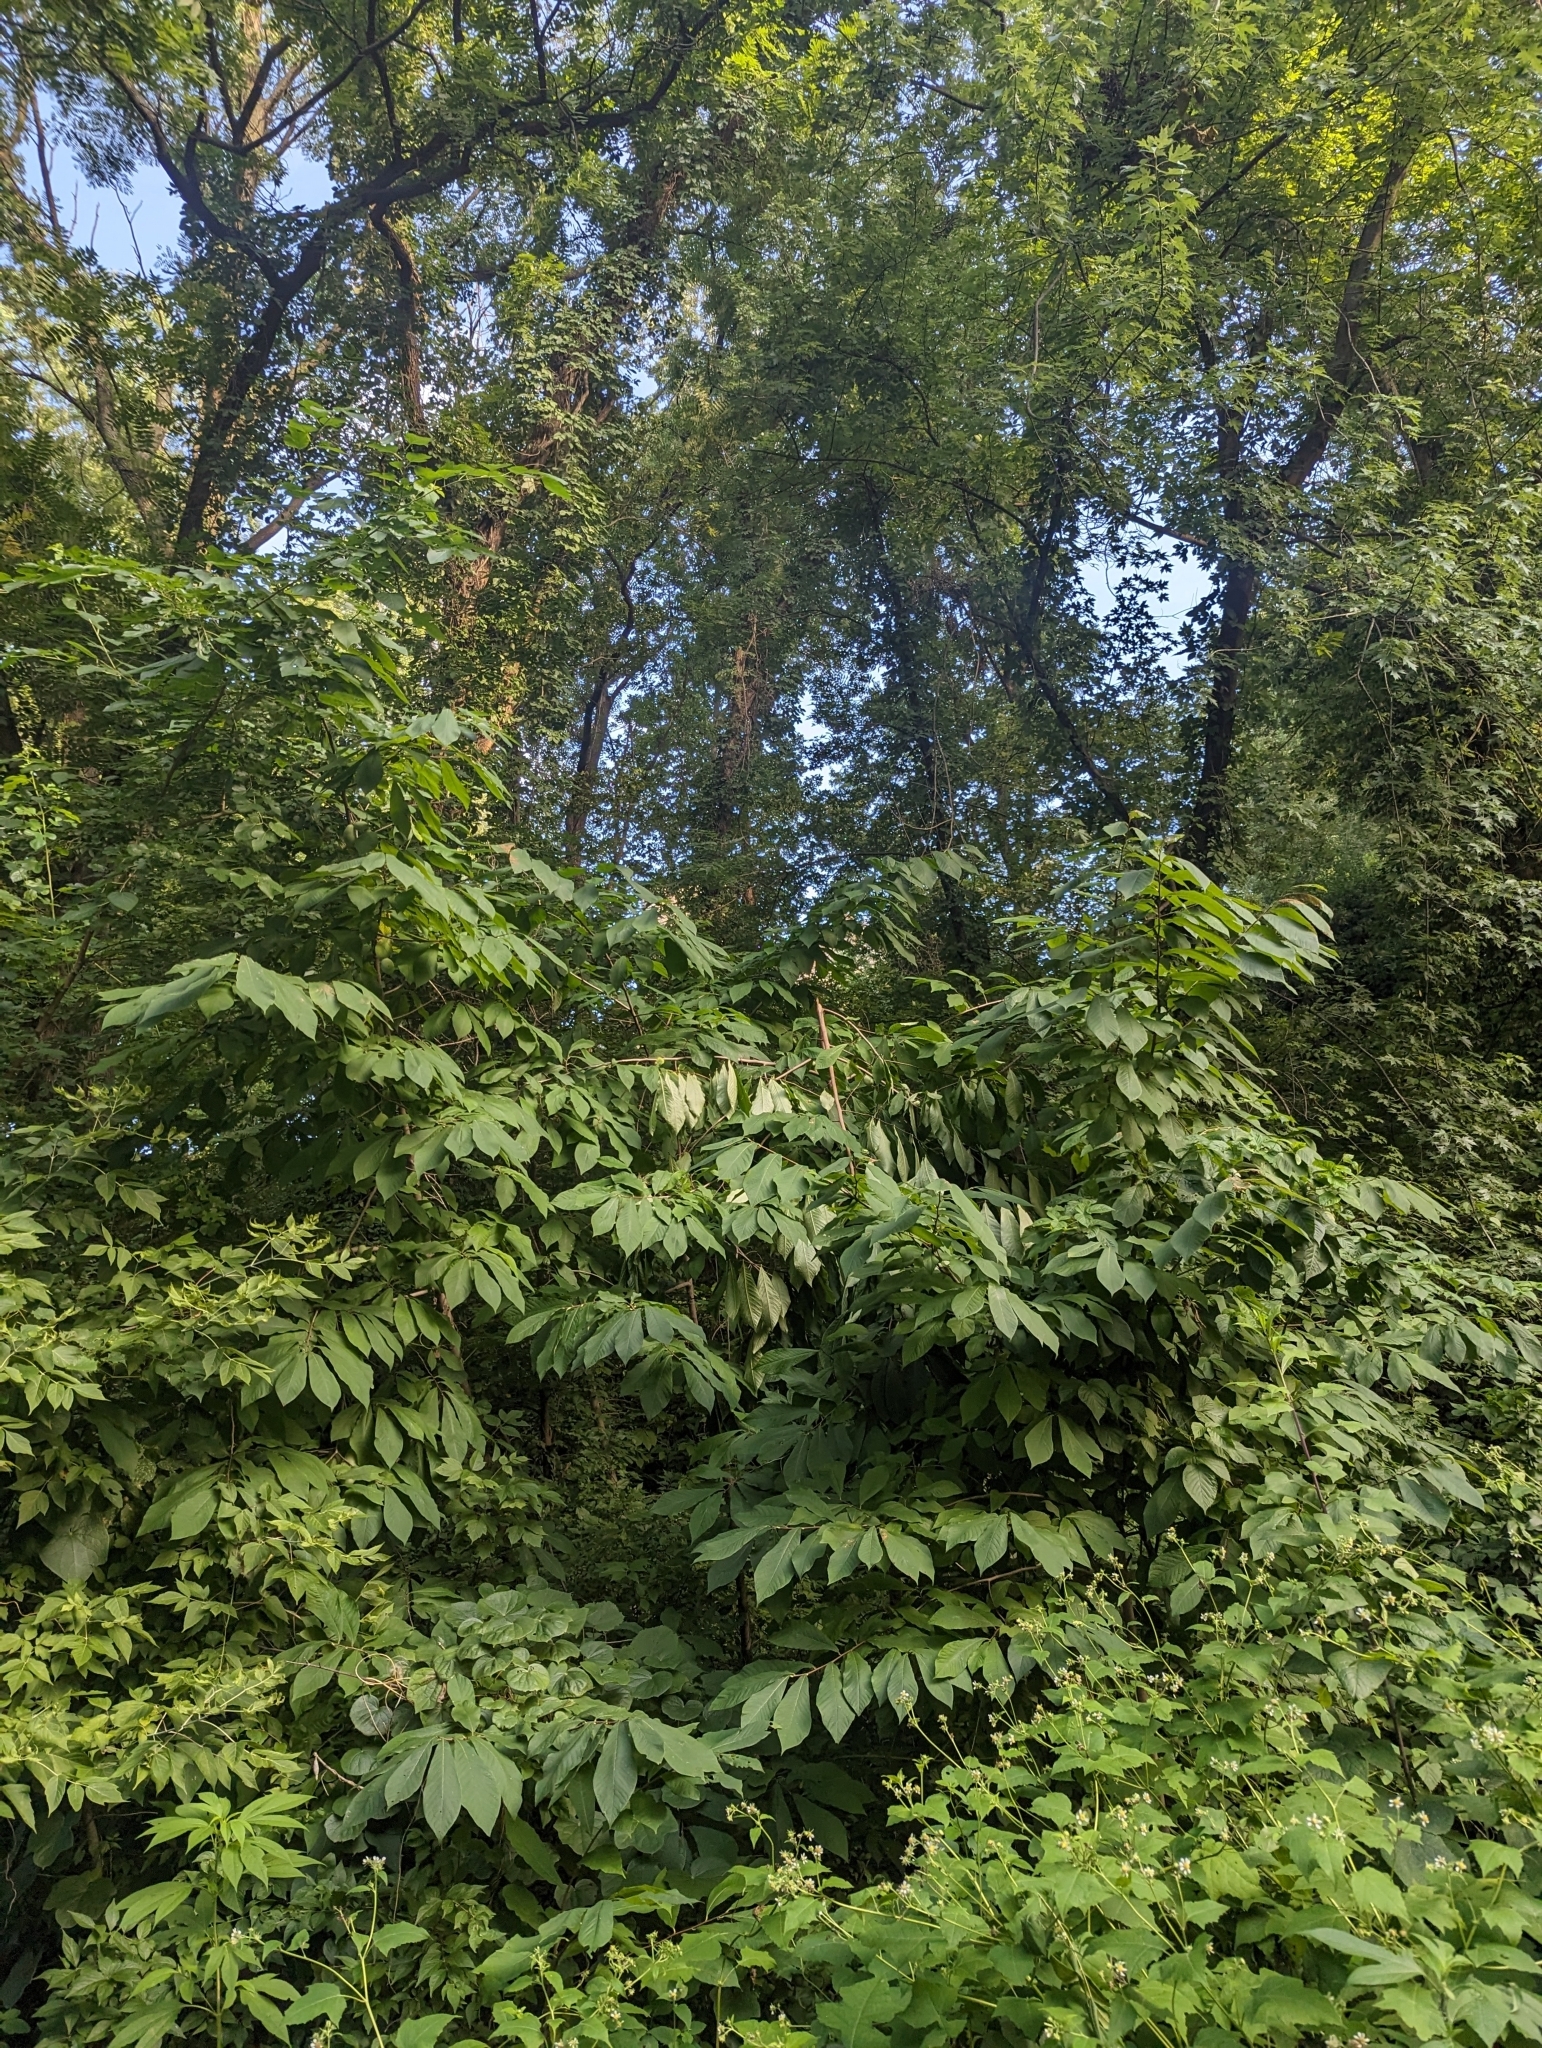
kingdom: Plantae
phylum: Tracheophyta
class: Magnoliopsida
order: Magnoliales
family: Annonaceae
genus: Asimina
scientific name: Asimina triloba
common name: Dog-banana
